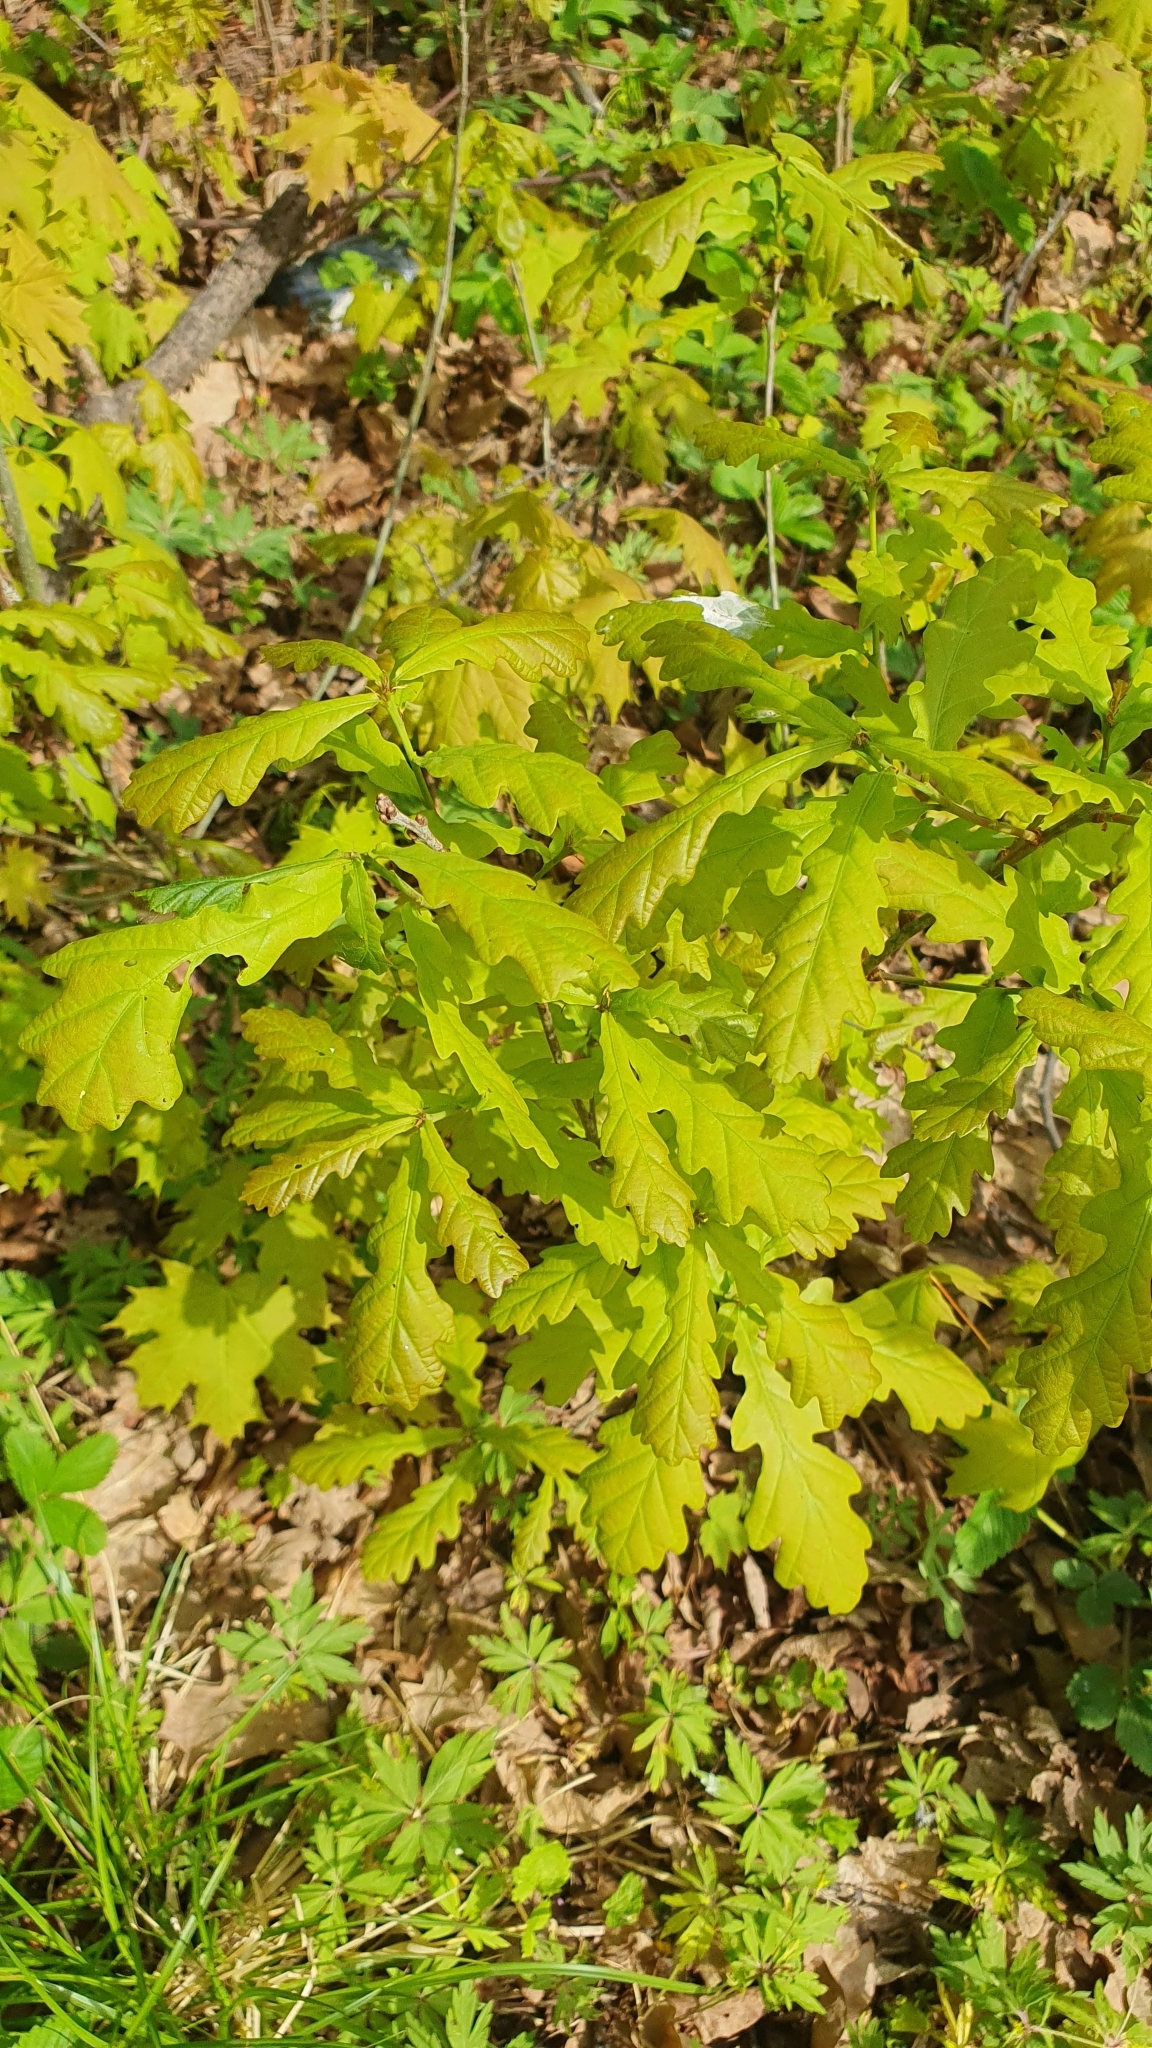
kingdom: Plantae
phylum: Tracheophyta
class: Magnoliopsida
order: Fagales
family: Fagaceae
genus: Quercus
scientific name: Quercus robur
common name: Pedunculate oak
